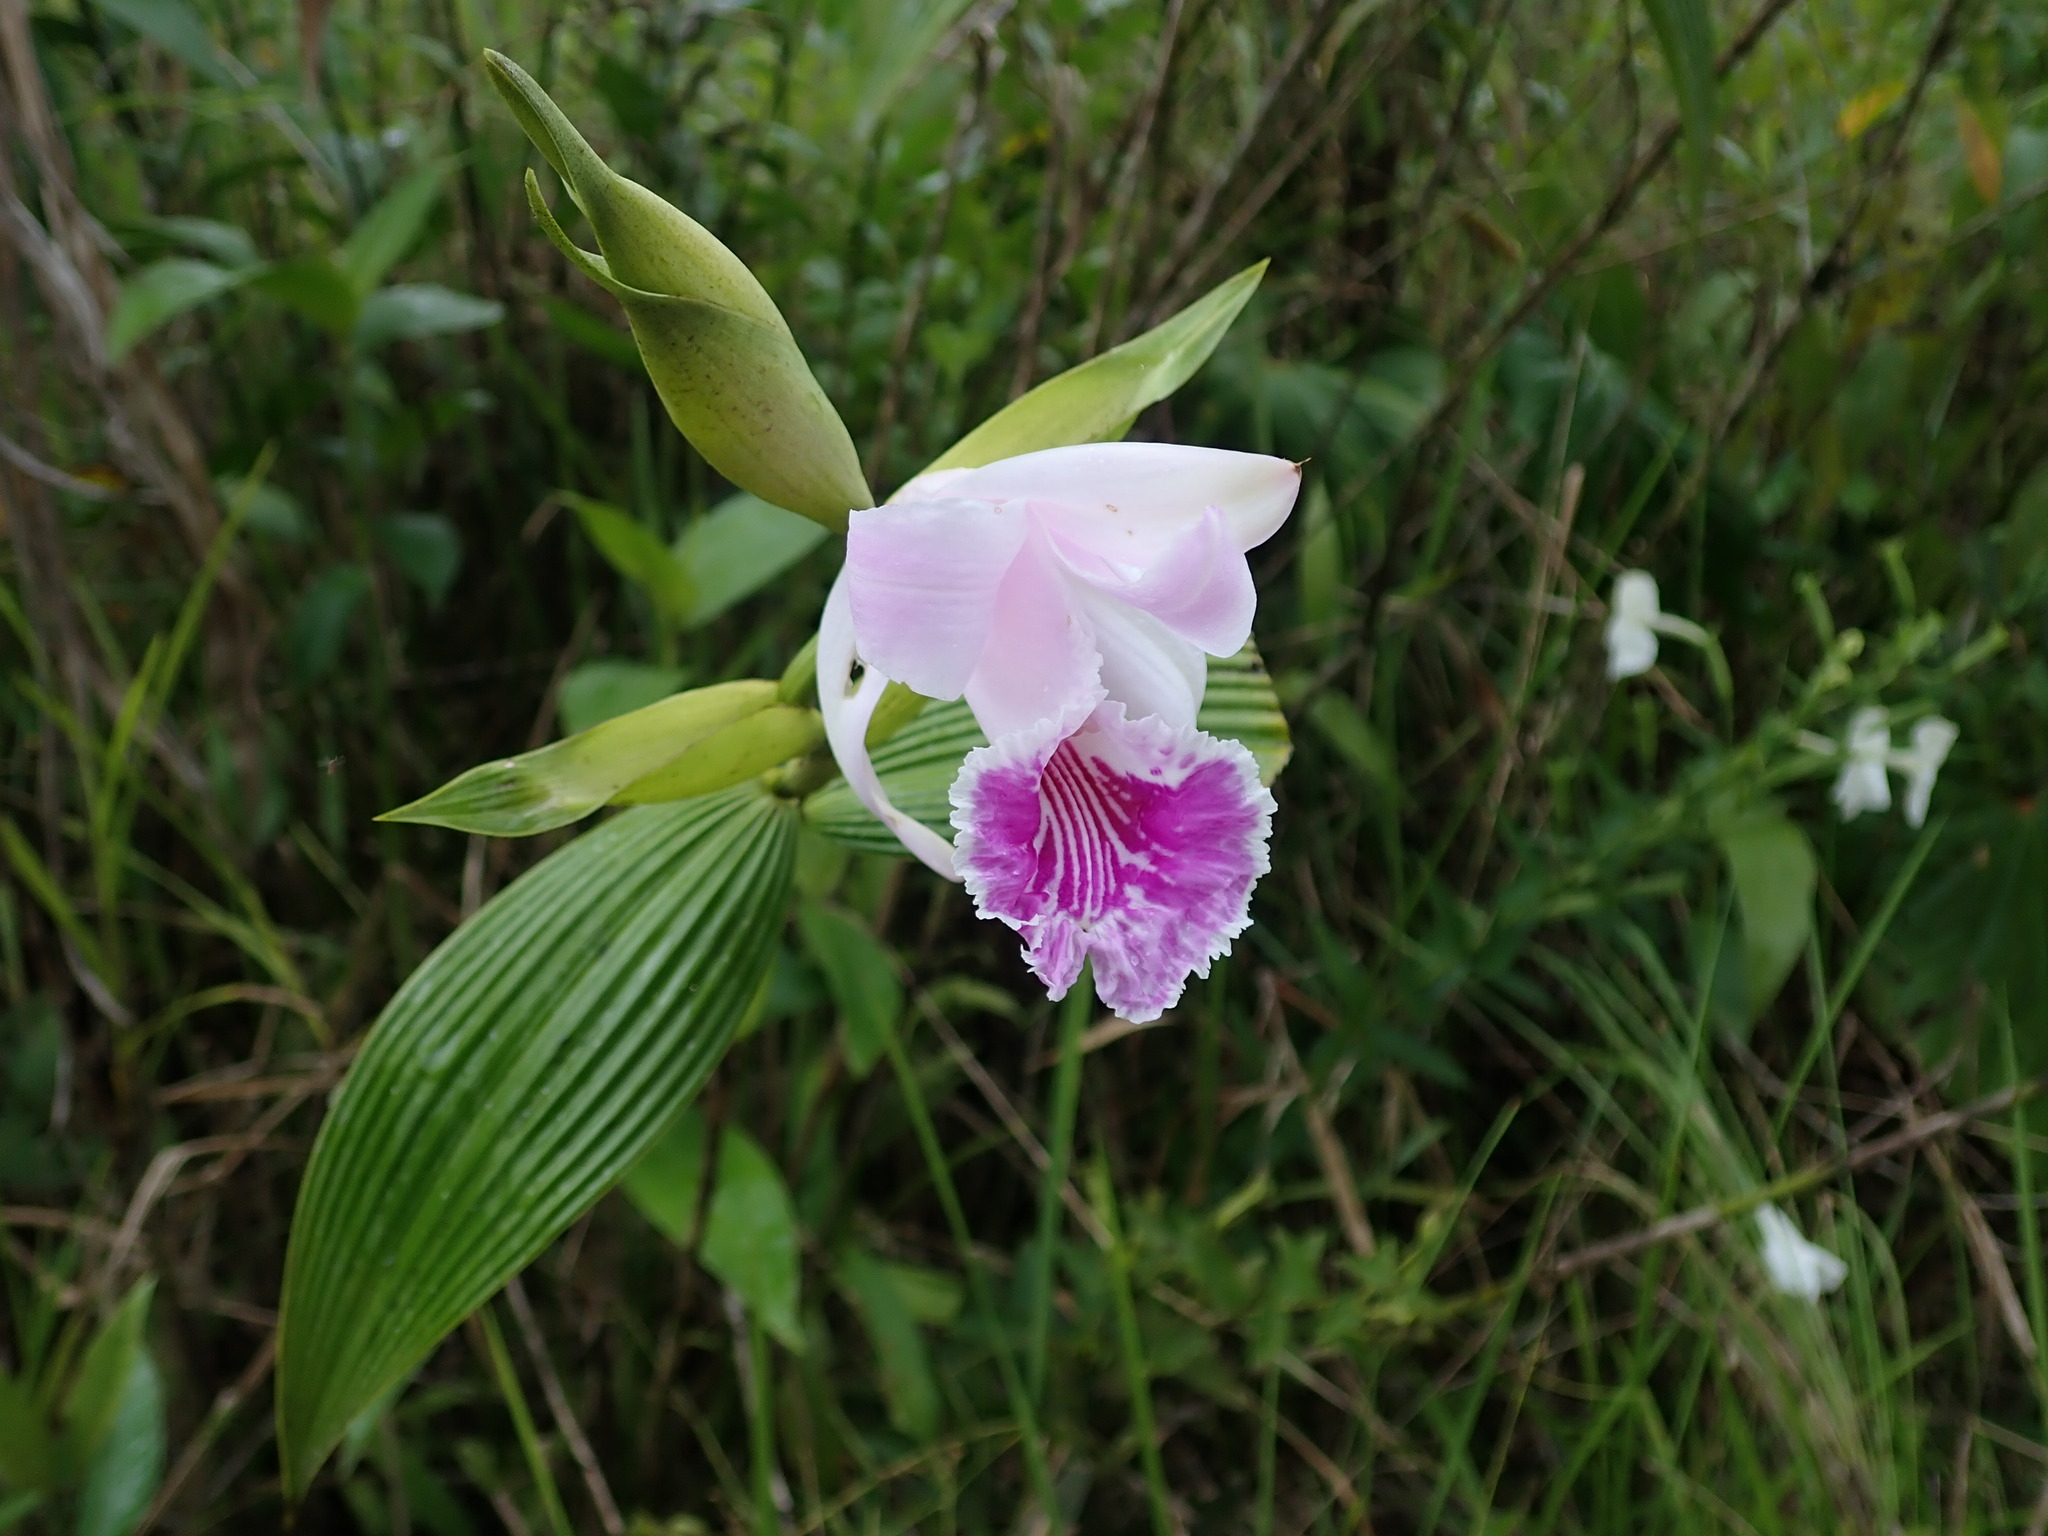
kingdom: Plantae
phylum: Tracheophyta
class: Liliopsida
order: Asparagales
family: Orchidaceae
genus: Sobralia
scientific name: Sobralia rosea
